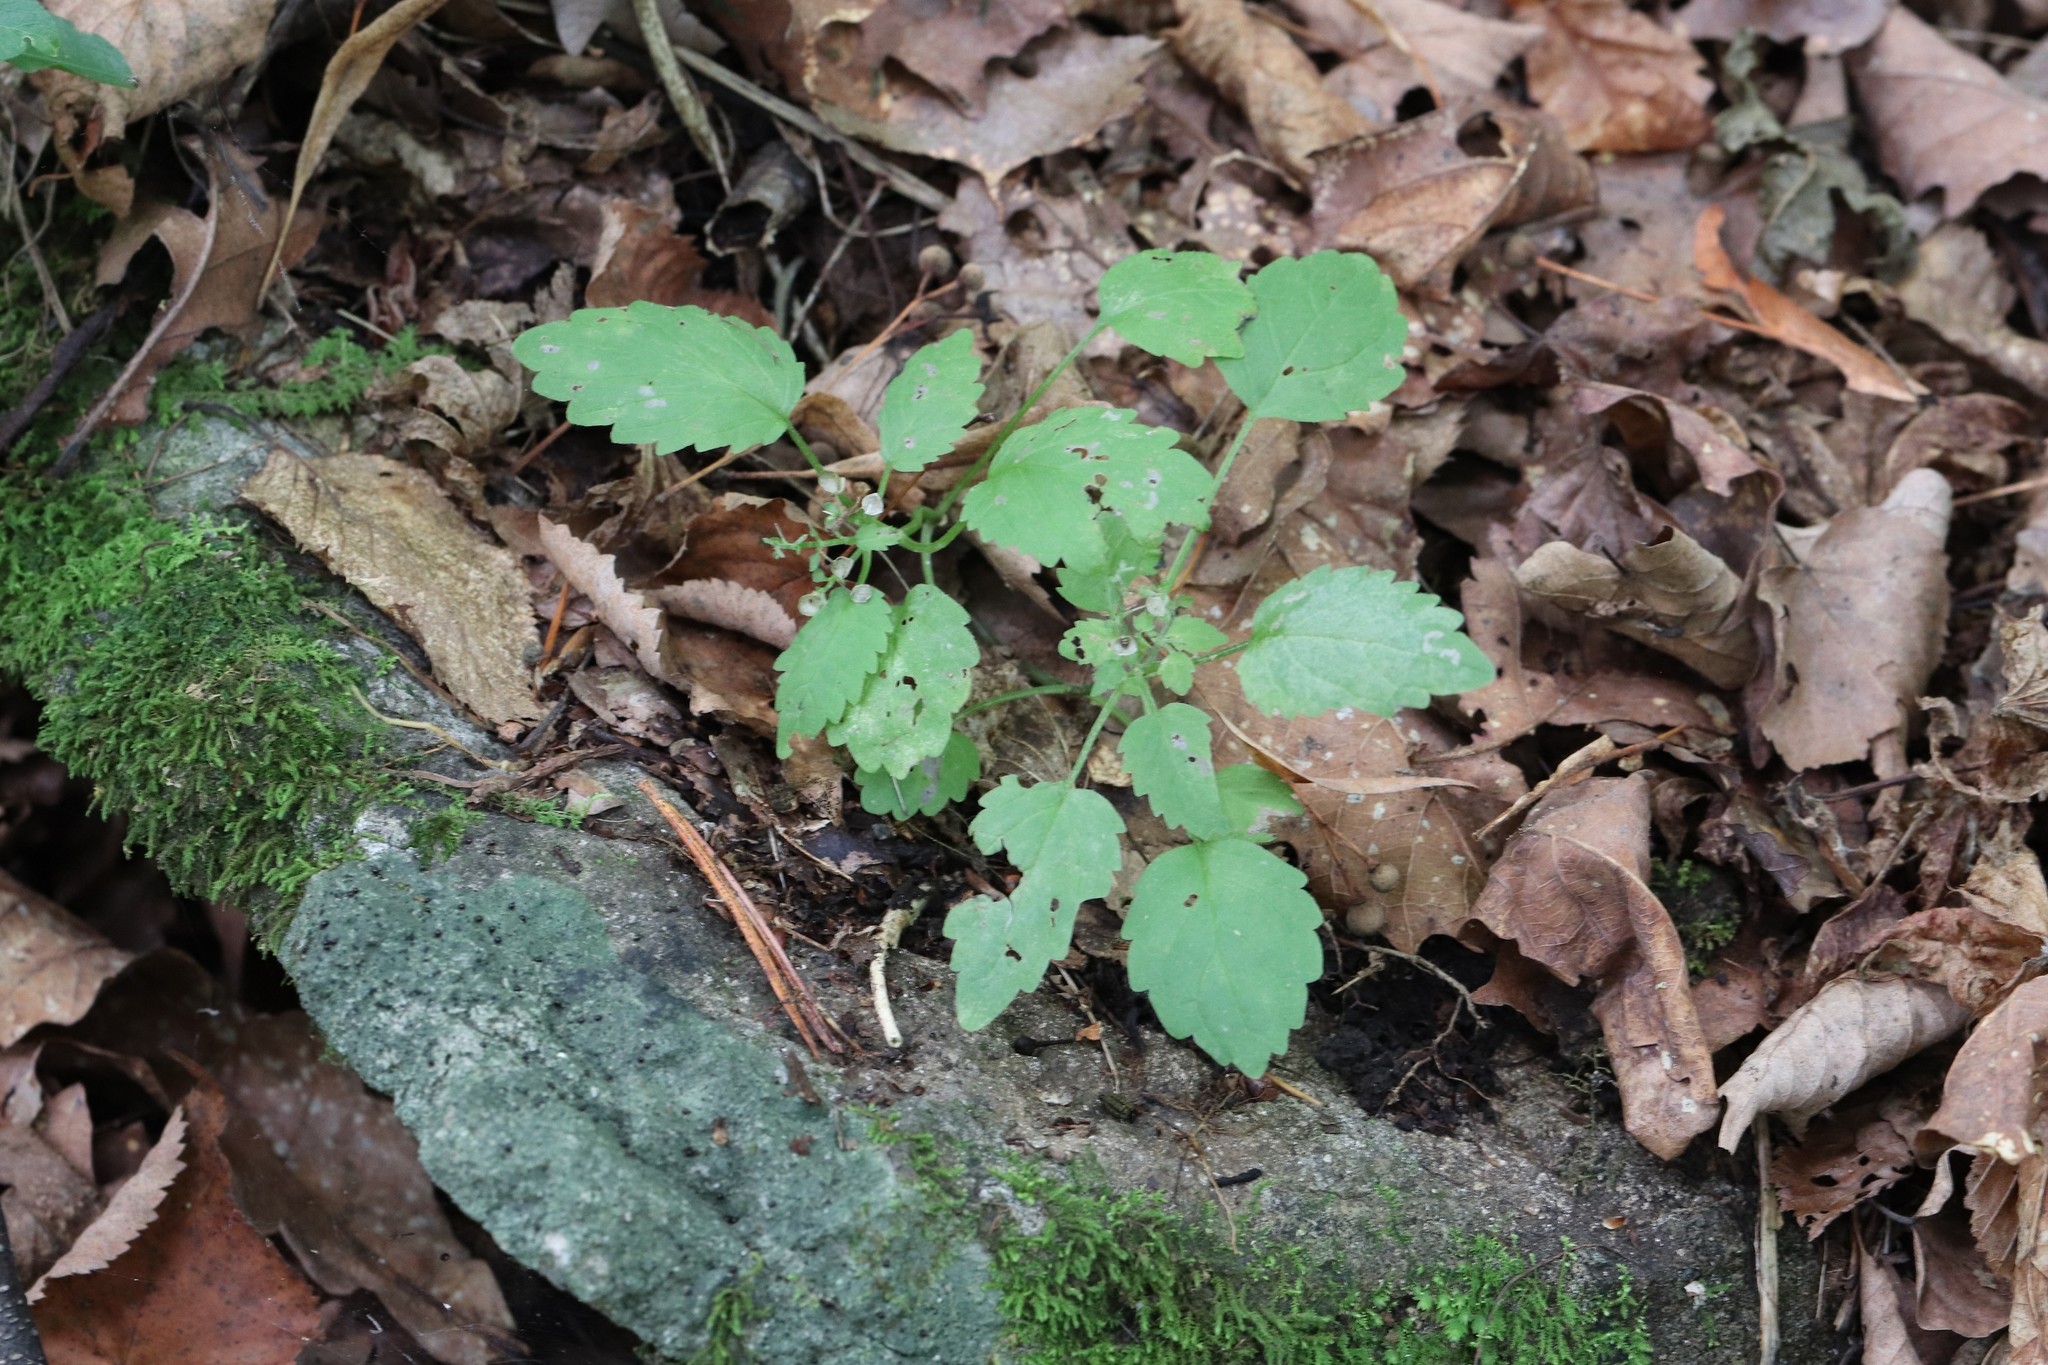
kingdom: Plantae
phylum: Tracheophyta
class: Magnoliopsida
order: Lamiales
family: Lamiaceae
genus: Scutellaria
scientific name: Scutellaria pekinensis
